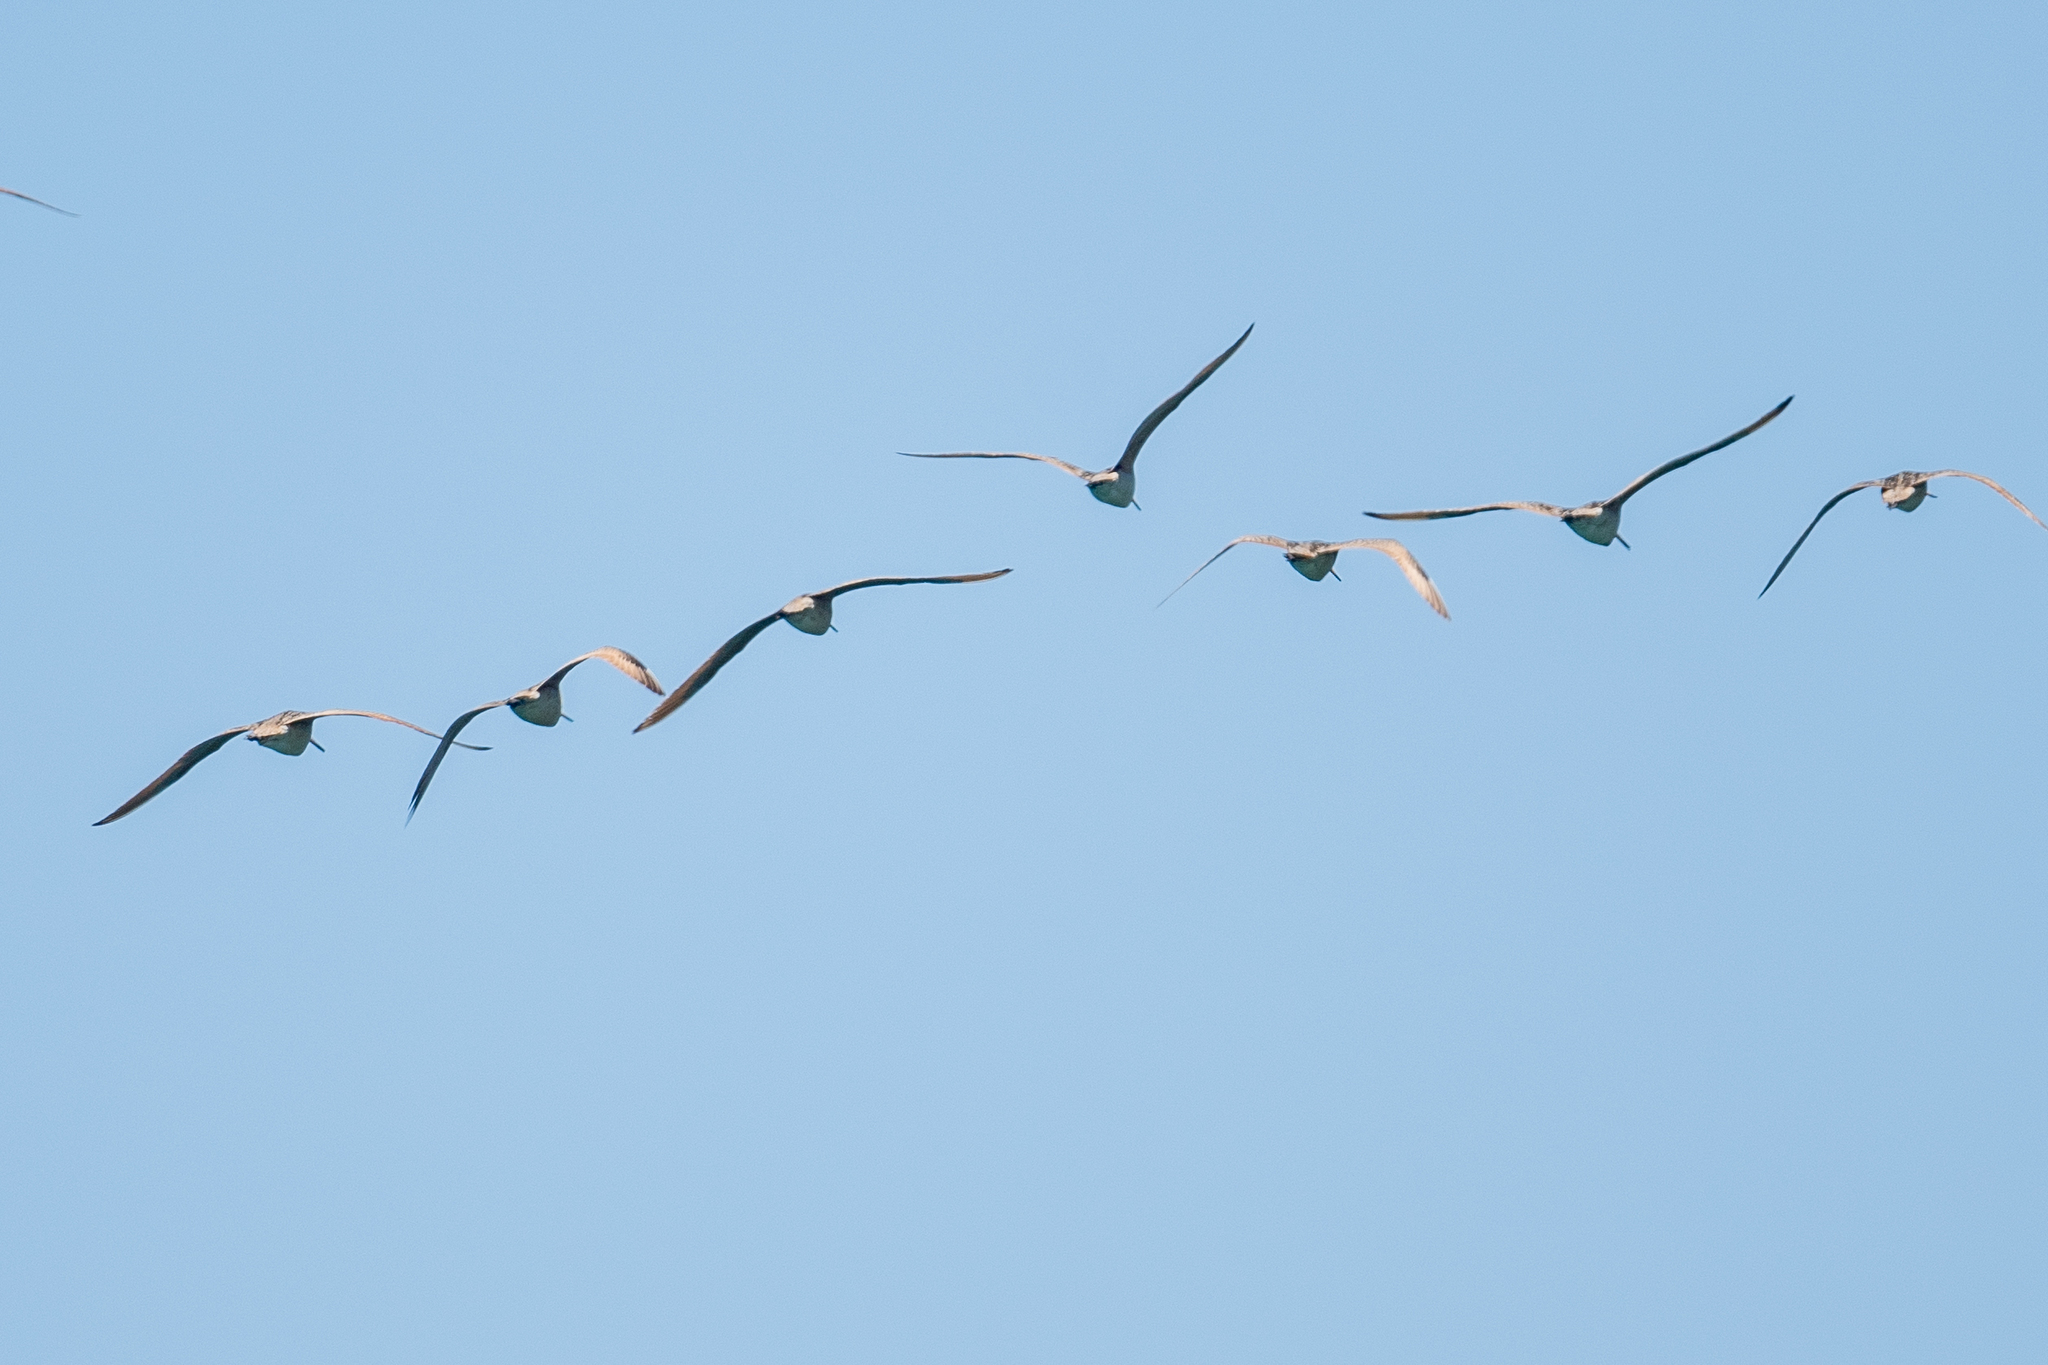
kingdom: Animalia
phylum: Chordata
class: Aves
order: Charadriiformes
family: Scolopacidae
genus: Limosa
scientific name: Limosa fedoa
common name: Marbled godwit
